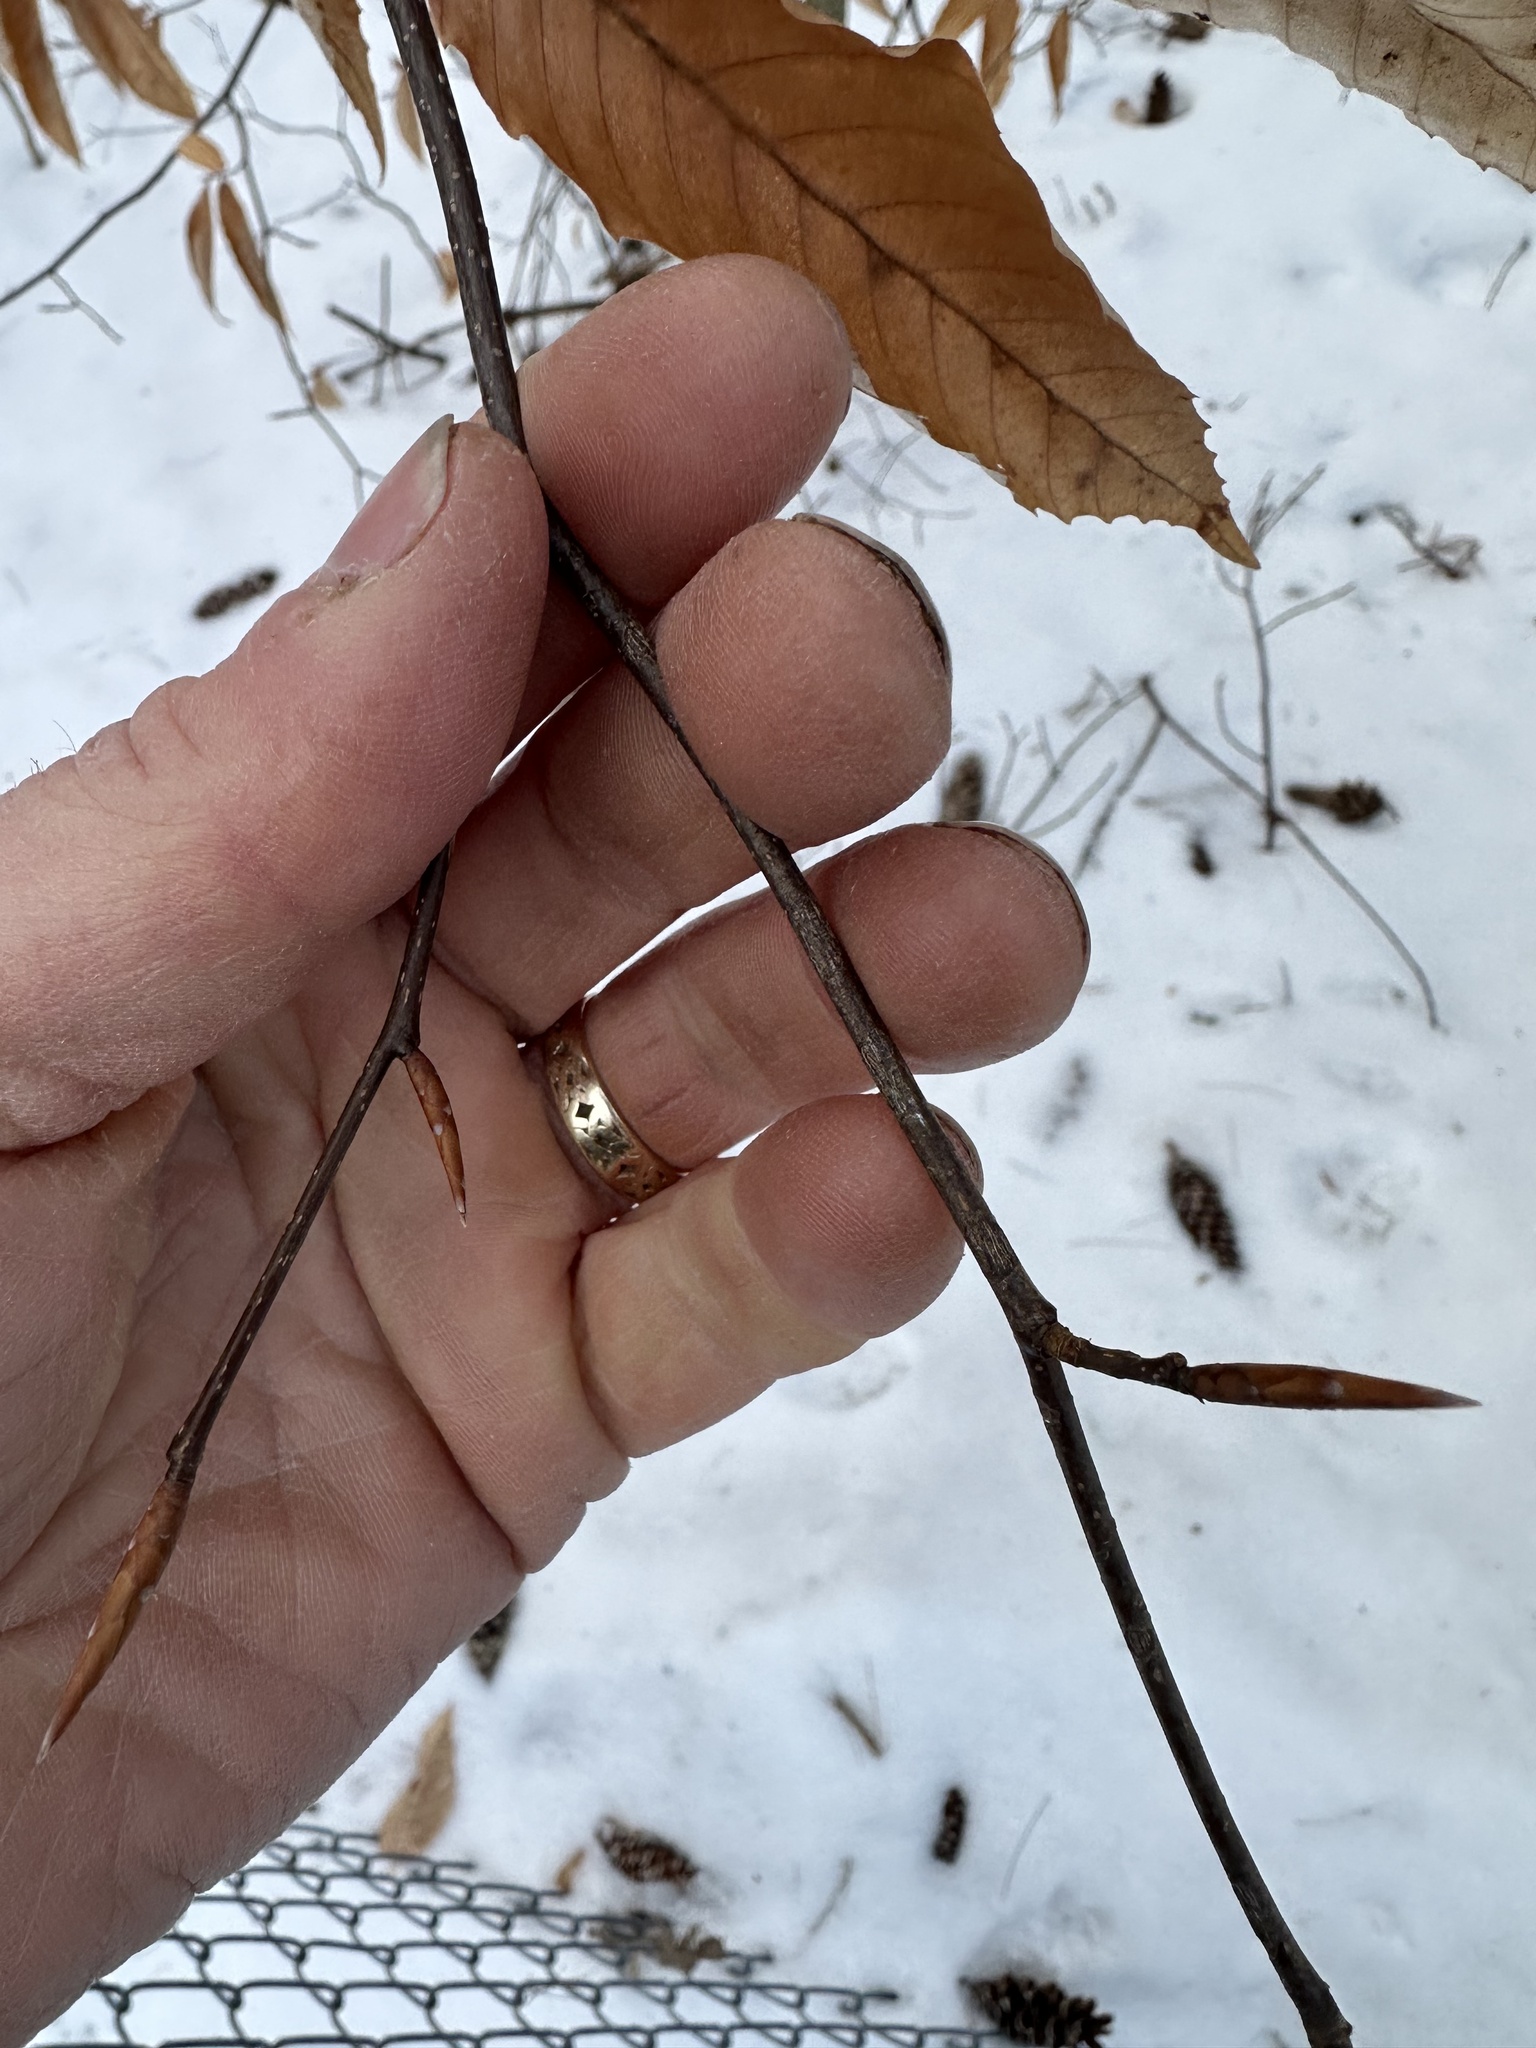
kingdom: Plantae
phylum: Tracheophyta
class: Magnoliopsida
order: Fagales
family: Fagaceae
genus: Fagus
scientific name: Fagus grandifolia
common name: American beech
